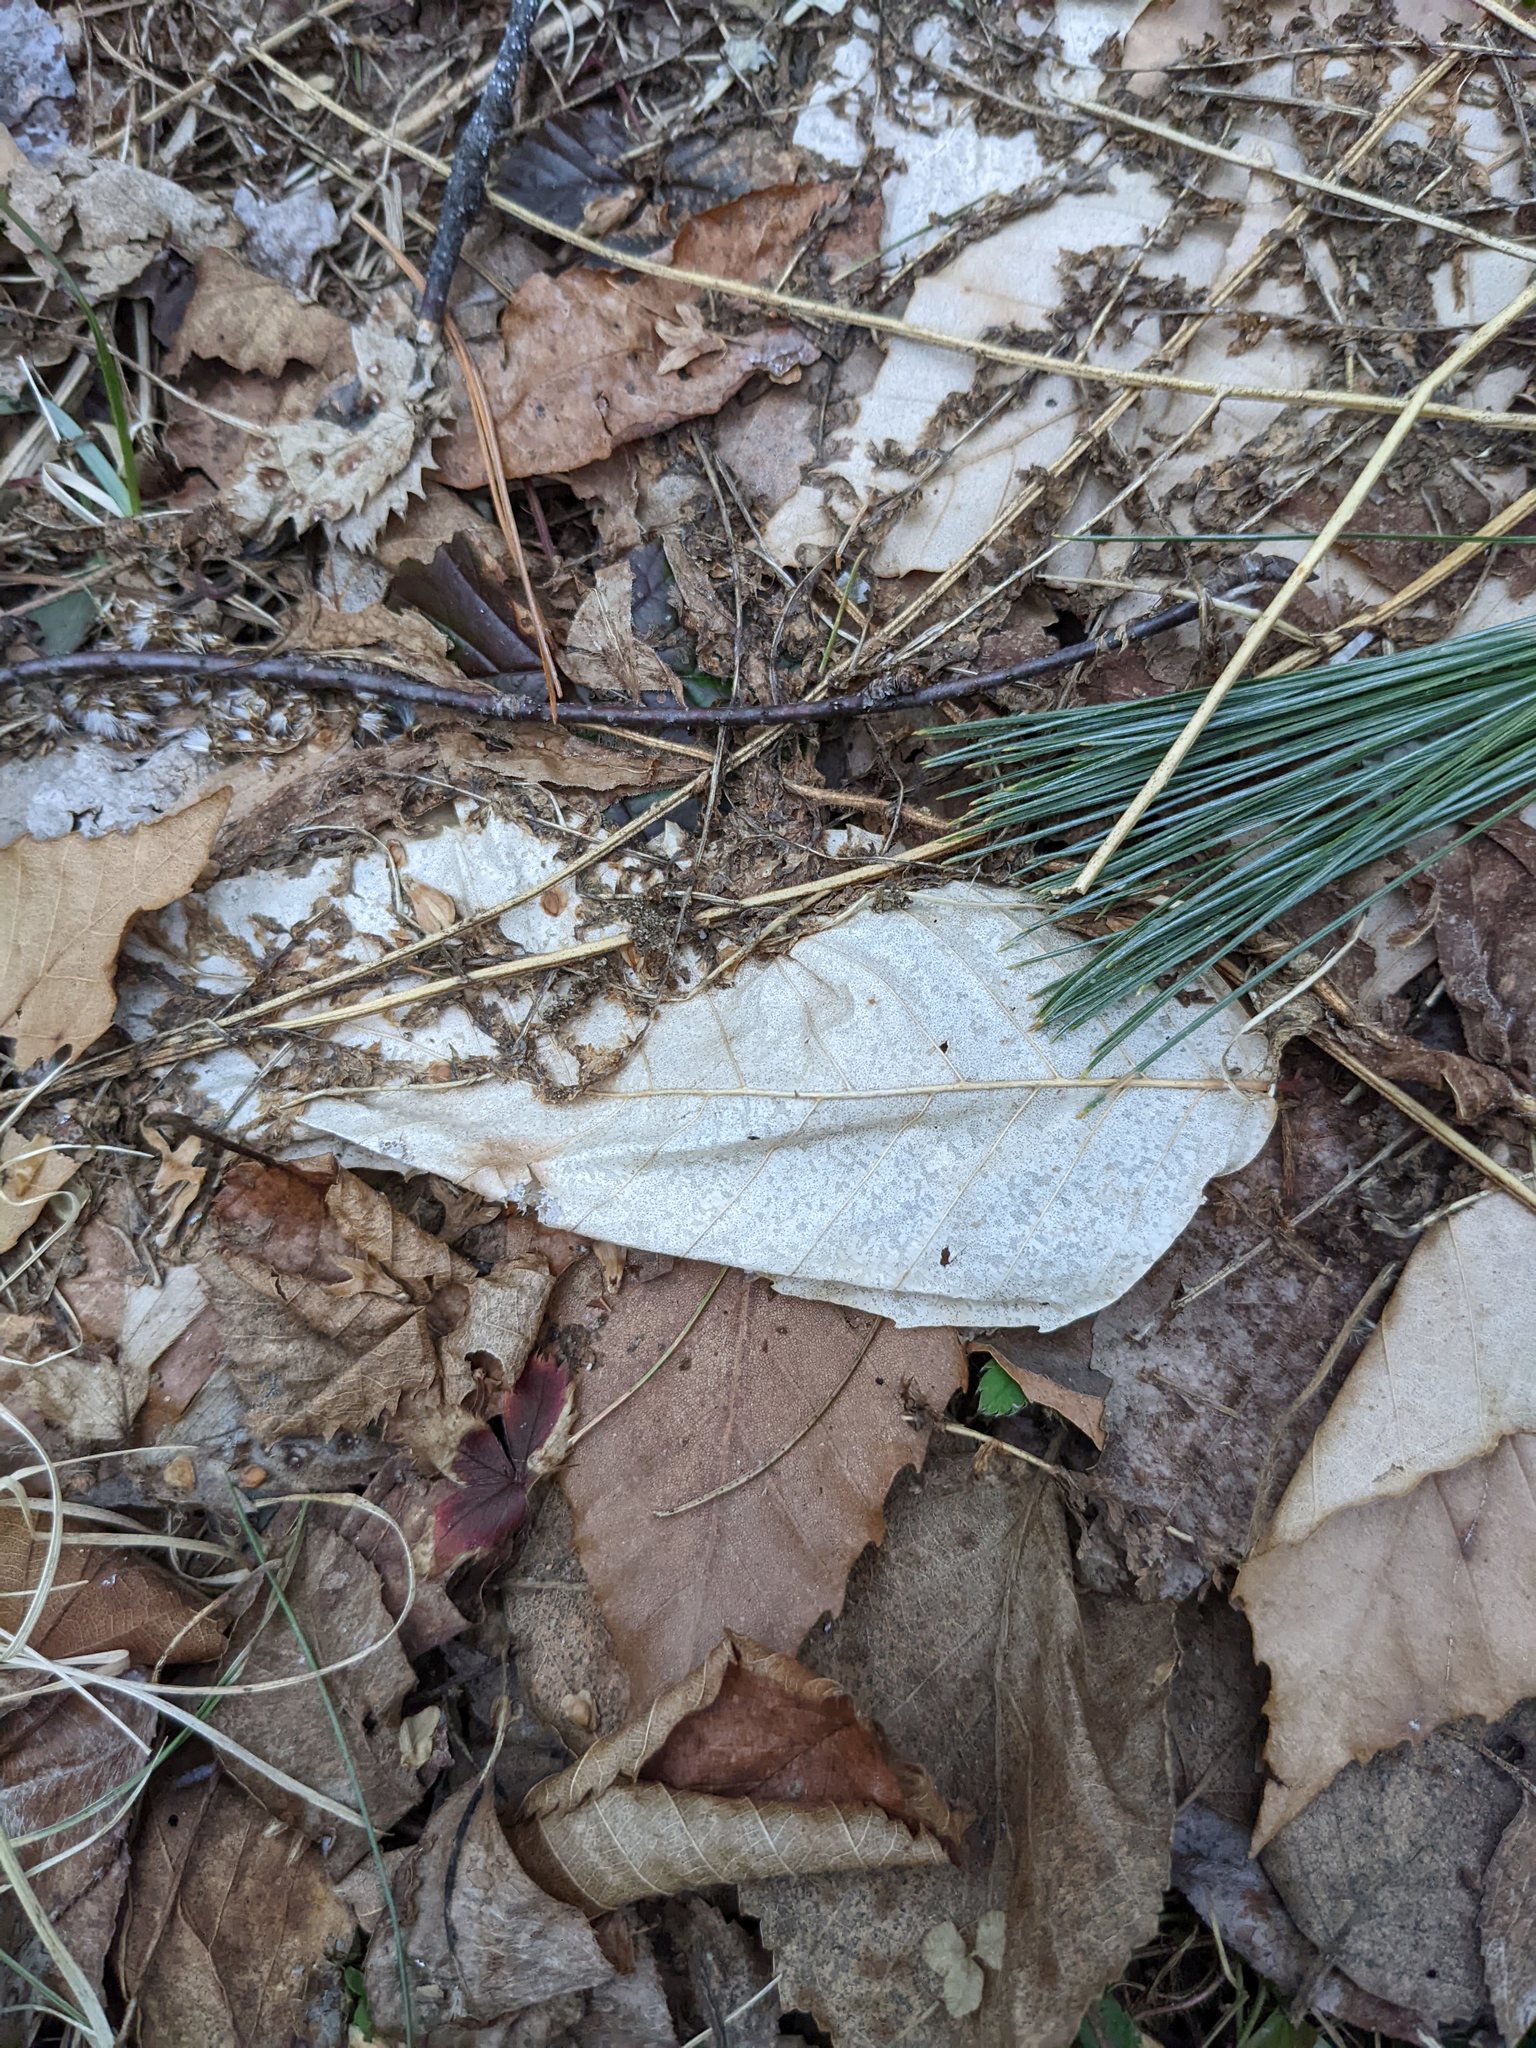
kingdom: Plantae
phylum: Tracheophyta
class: Magnoliopsida
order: Fagales
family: Fagaceae
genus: Fagus
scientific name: Fagus grandifolia
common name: American beech
